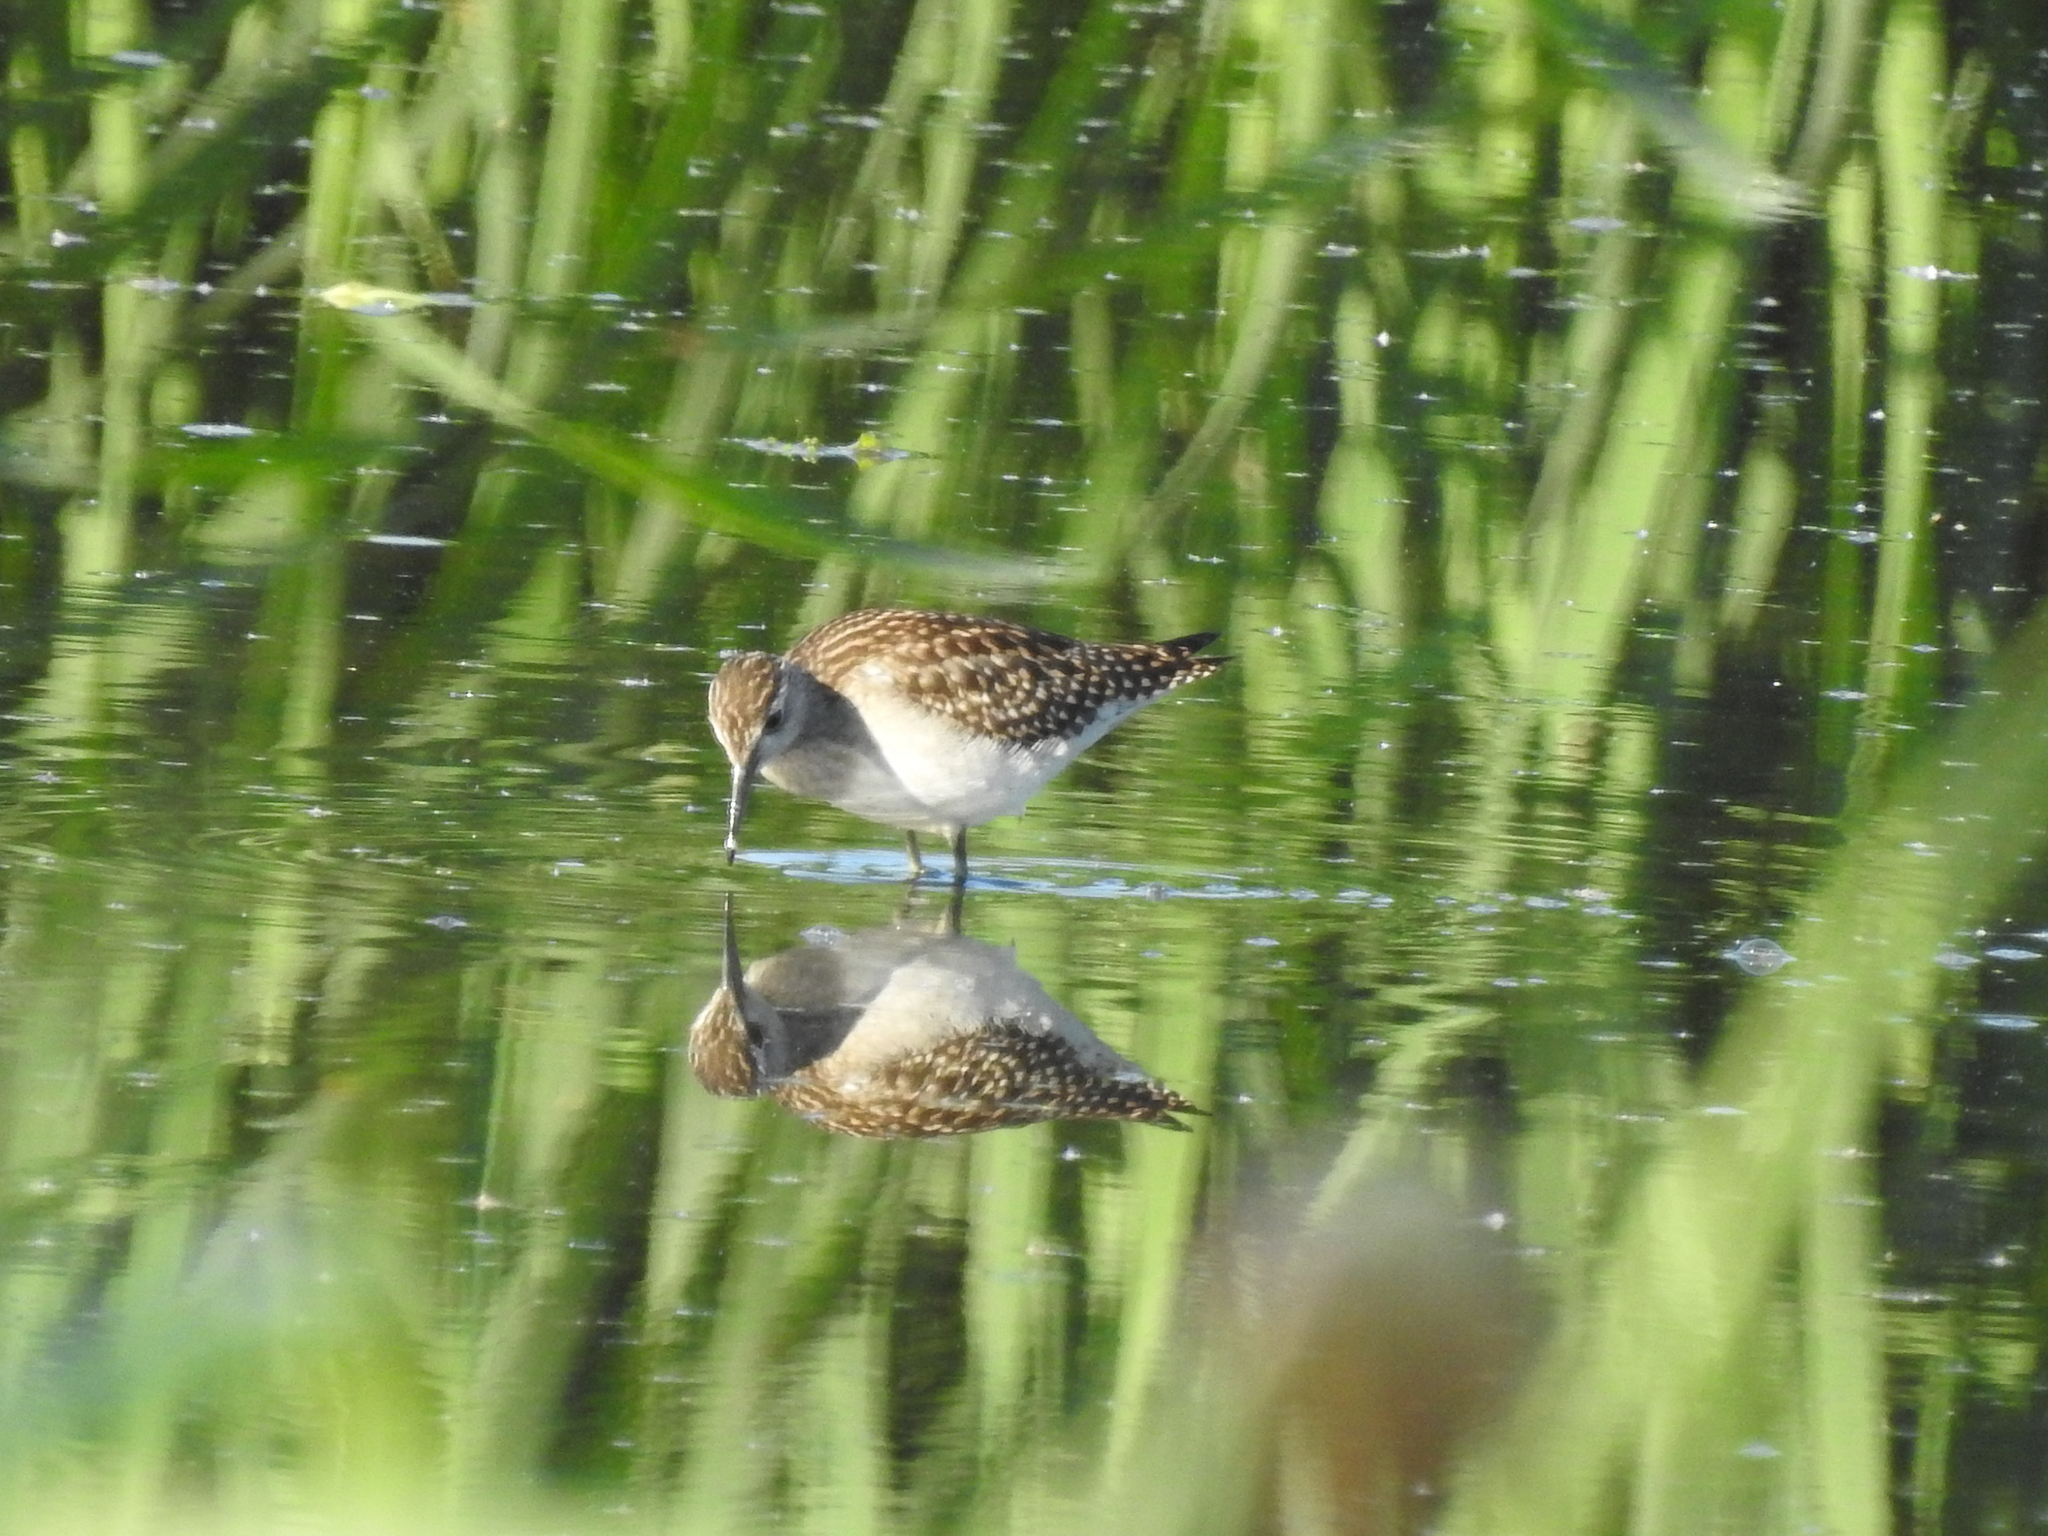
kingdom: Animalia
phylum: Chordata
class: Aves
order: Charadriiformes
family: Scolopacidae
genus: Tringa
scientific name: Tringa glareola
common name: Wood sandpiper
